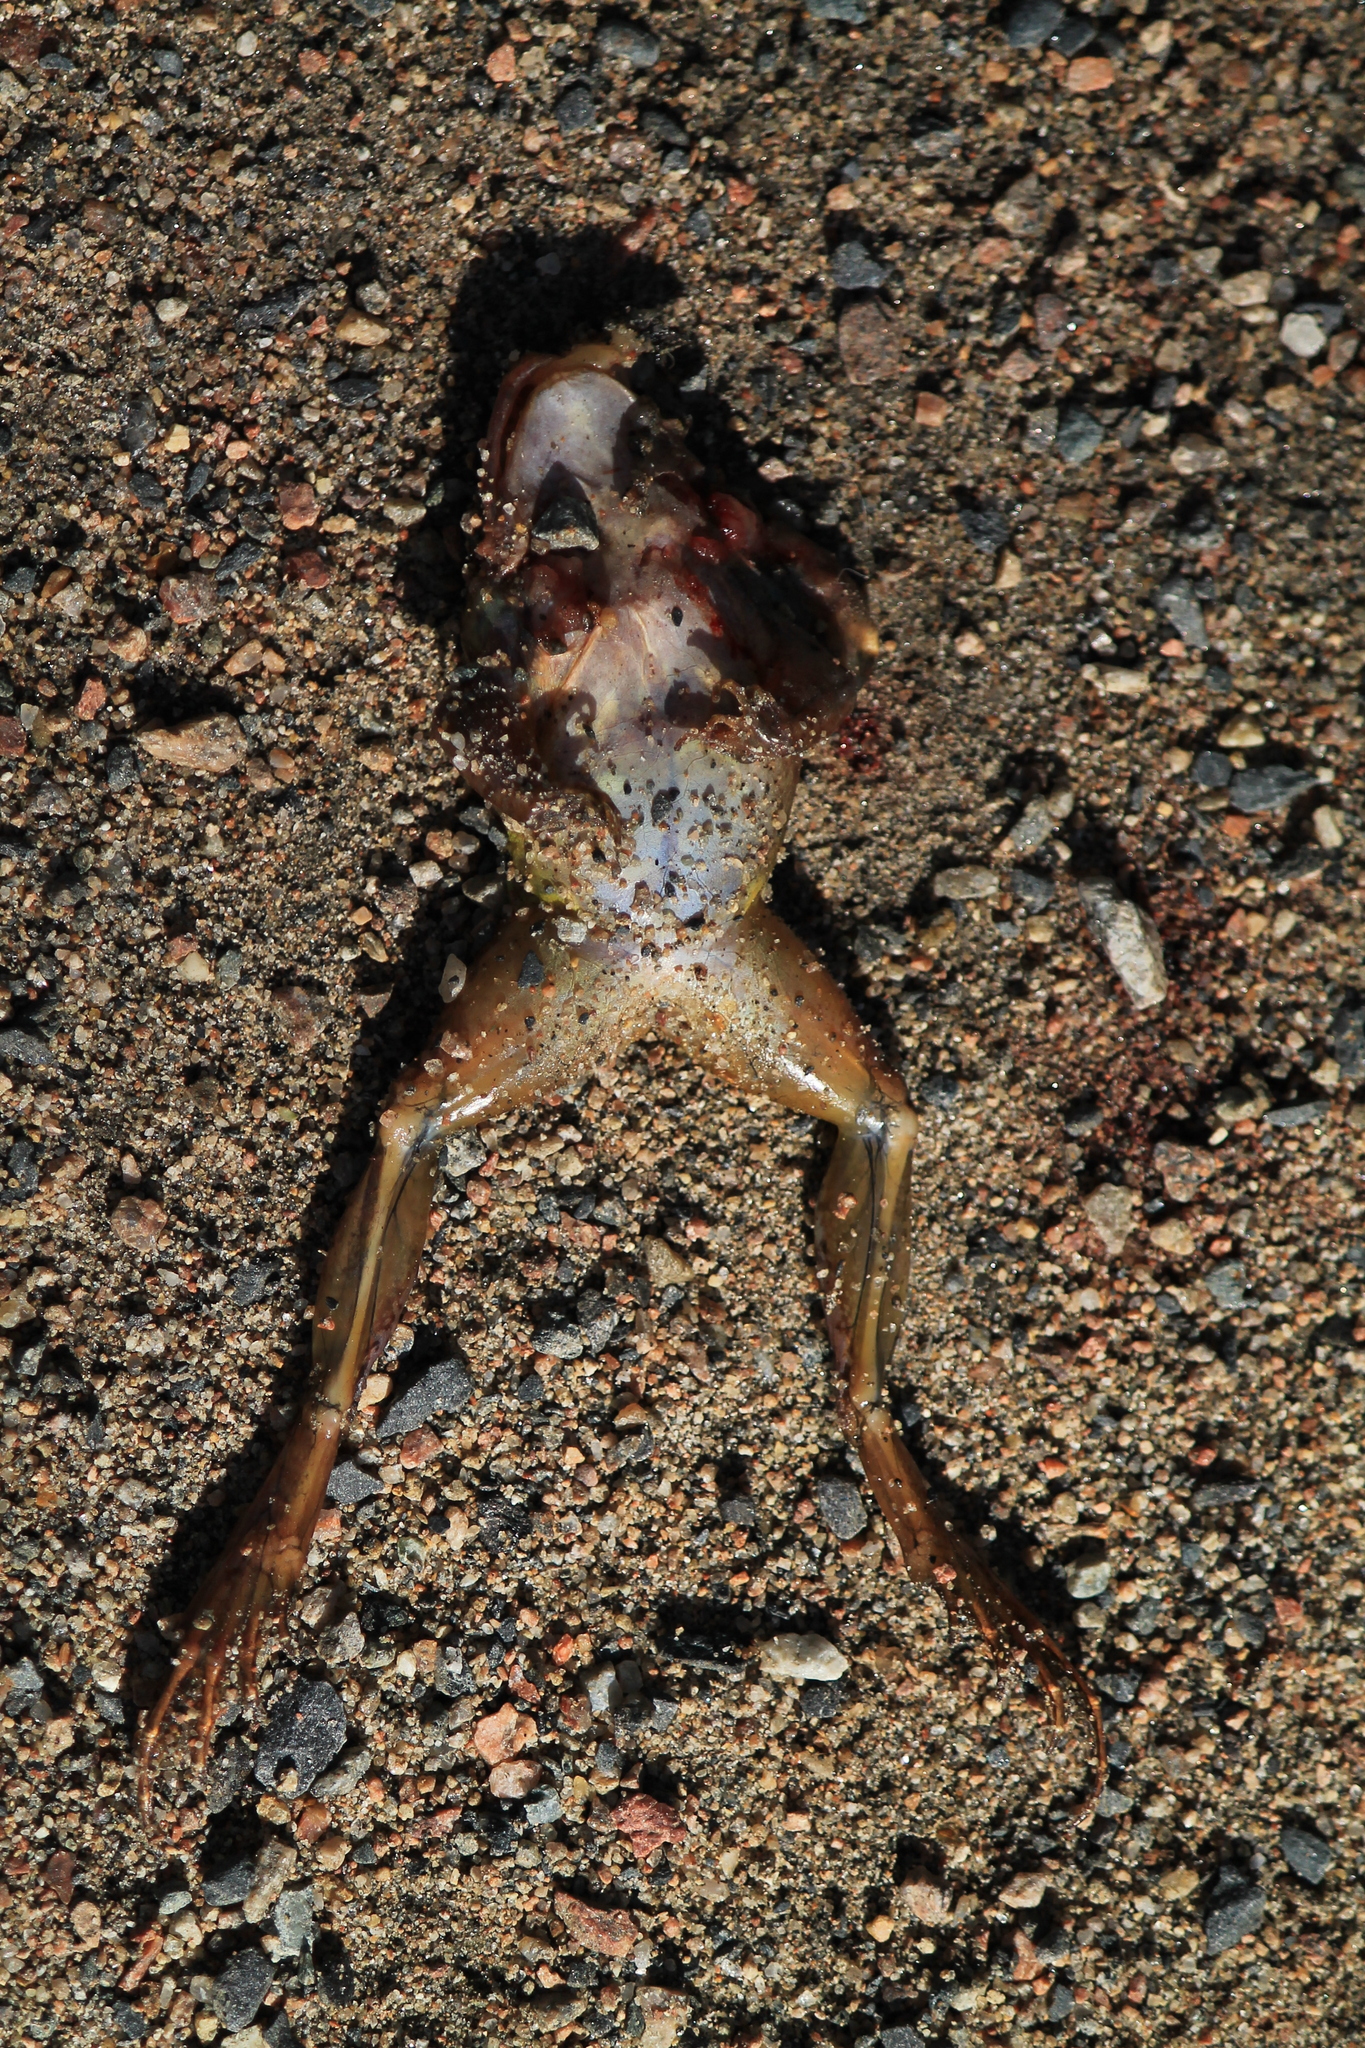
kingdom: Animalia
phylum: Chordata
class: Amphibia
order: Anura
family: Ranidae
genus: Rana
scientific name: Rana temporaria
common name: Common frog
